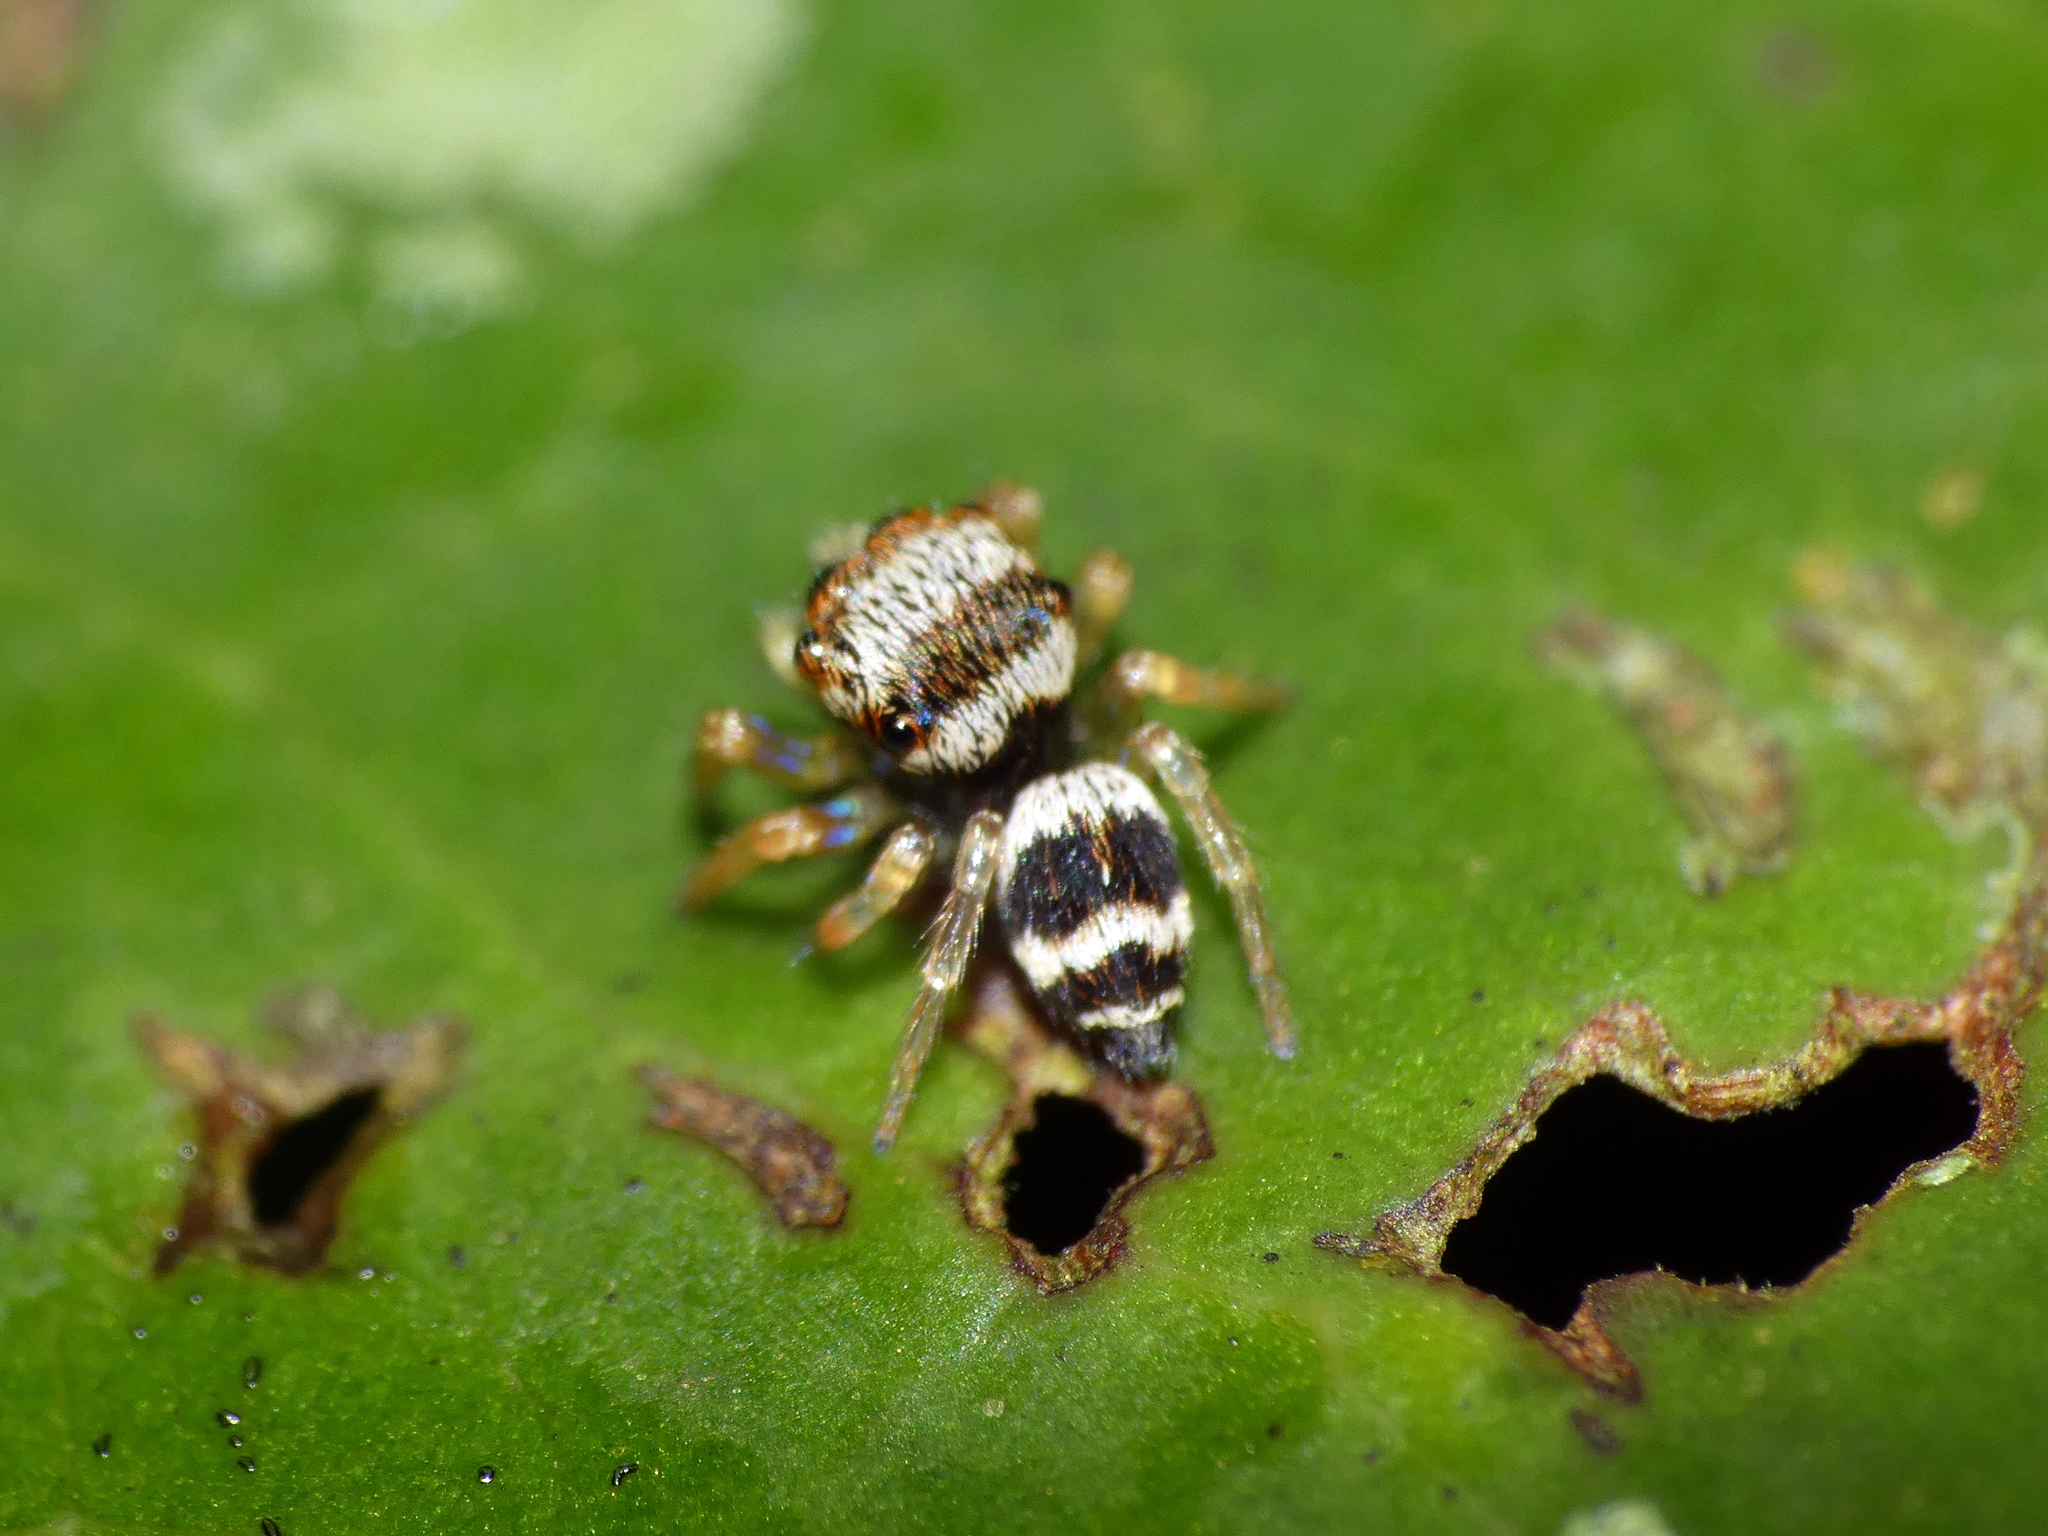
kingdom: Animalia
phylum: Arthropoda
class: Arachnida
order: Araneae
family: Salticidae
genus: Euryattus
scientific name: Euryattus bleekeri
